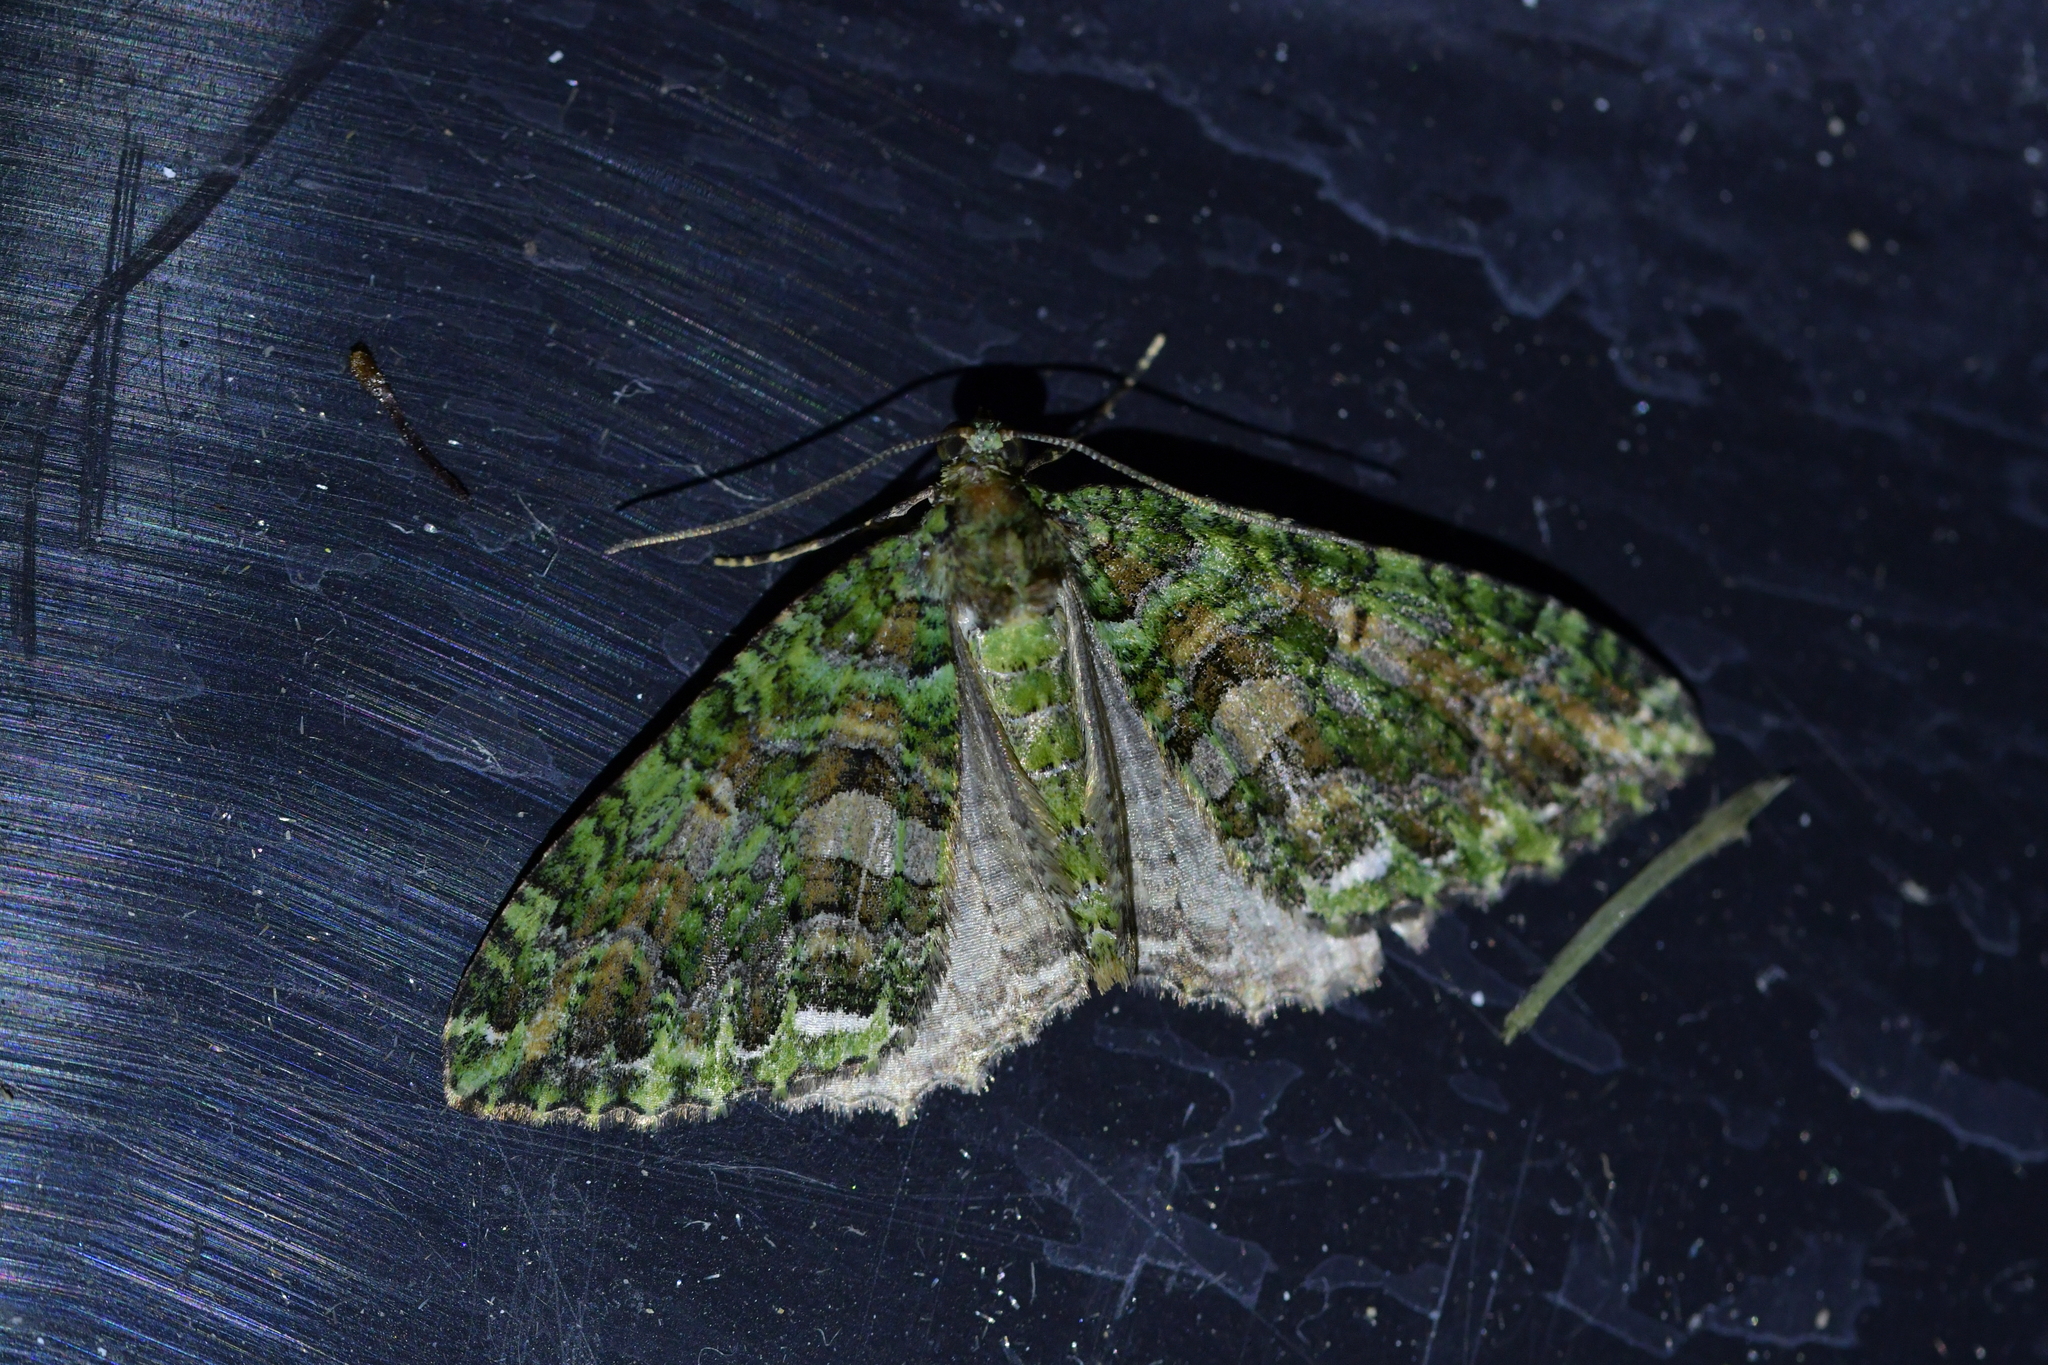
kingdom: Animalia
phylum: Arthropoda
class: Insecta
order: Lepidoptera
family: Geometridae
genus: Austrocidaria
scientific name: Austrocidaria similata
